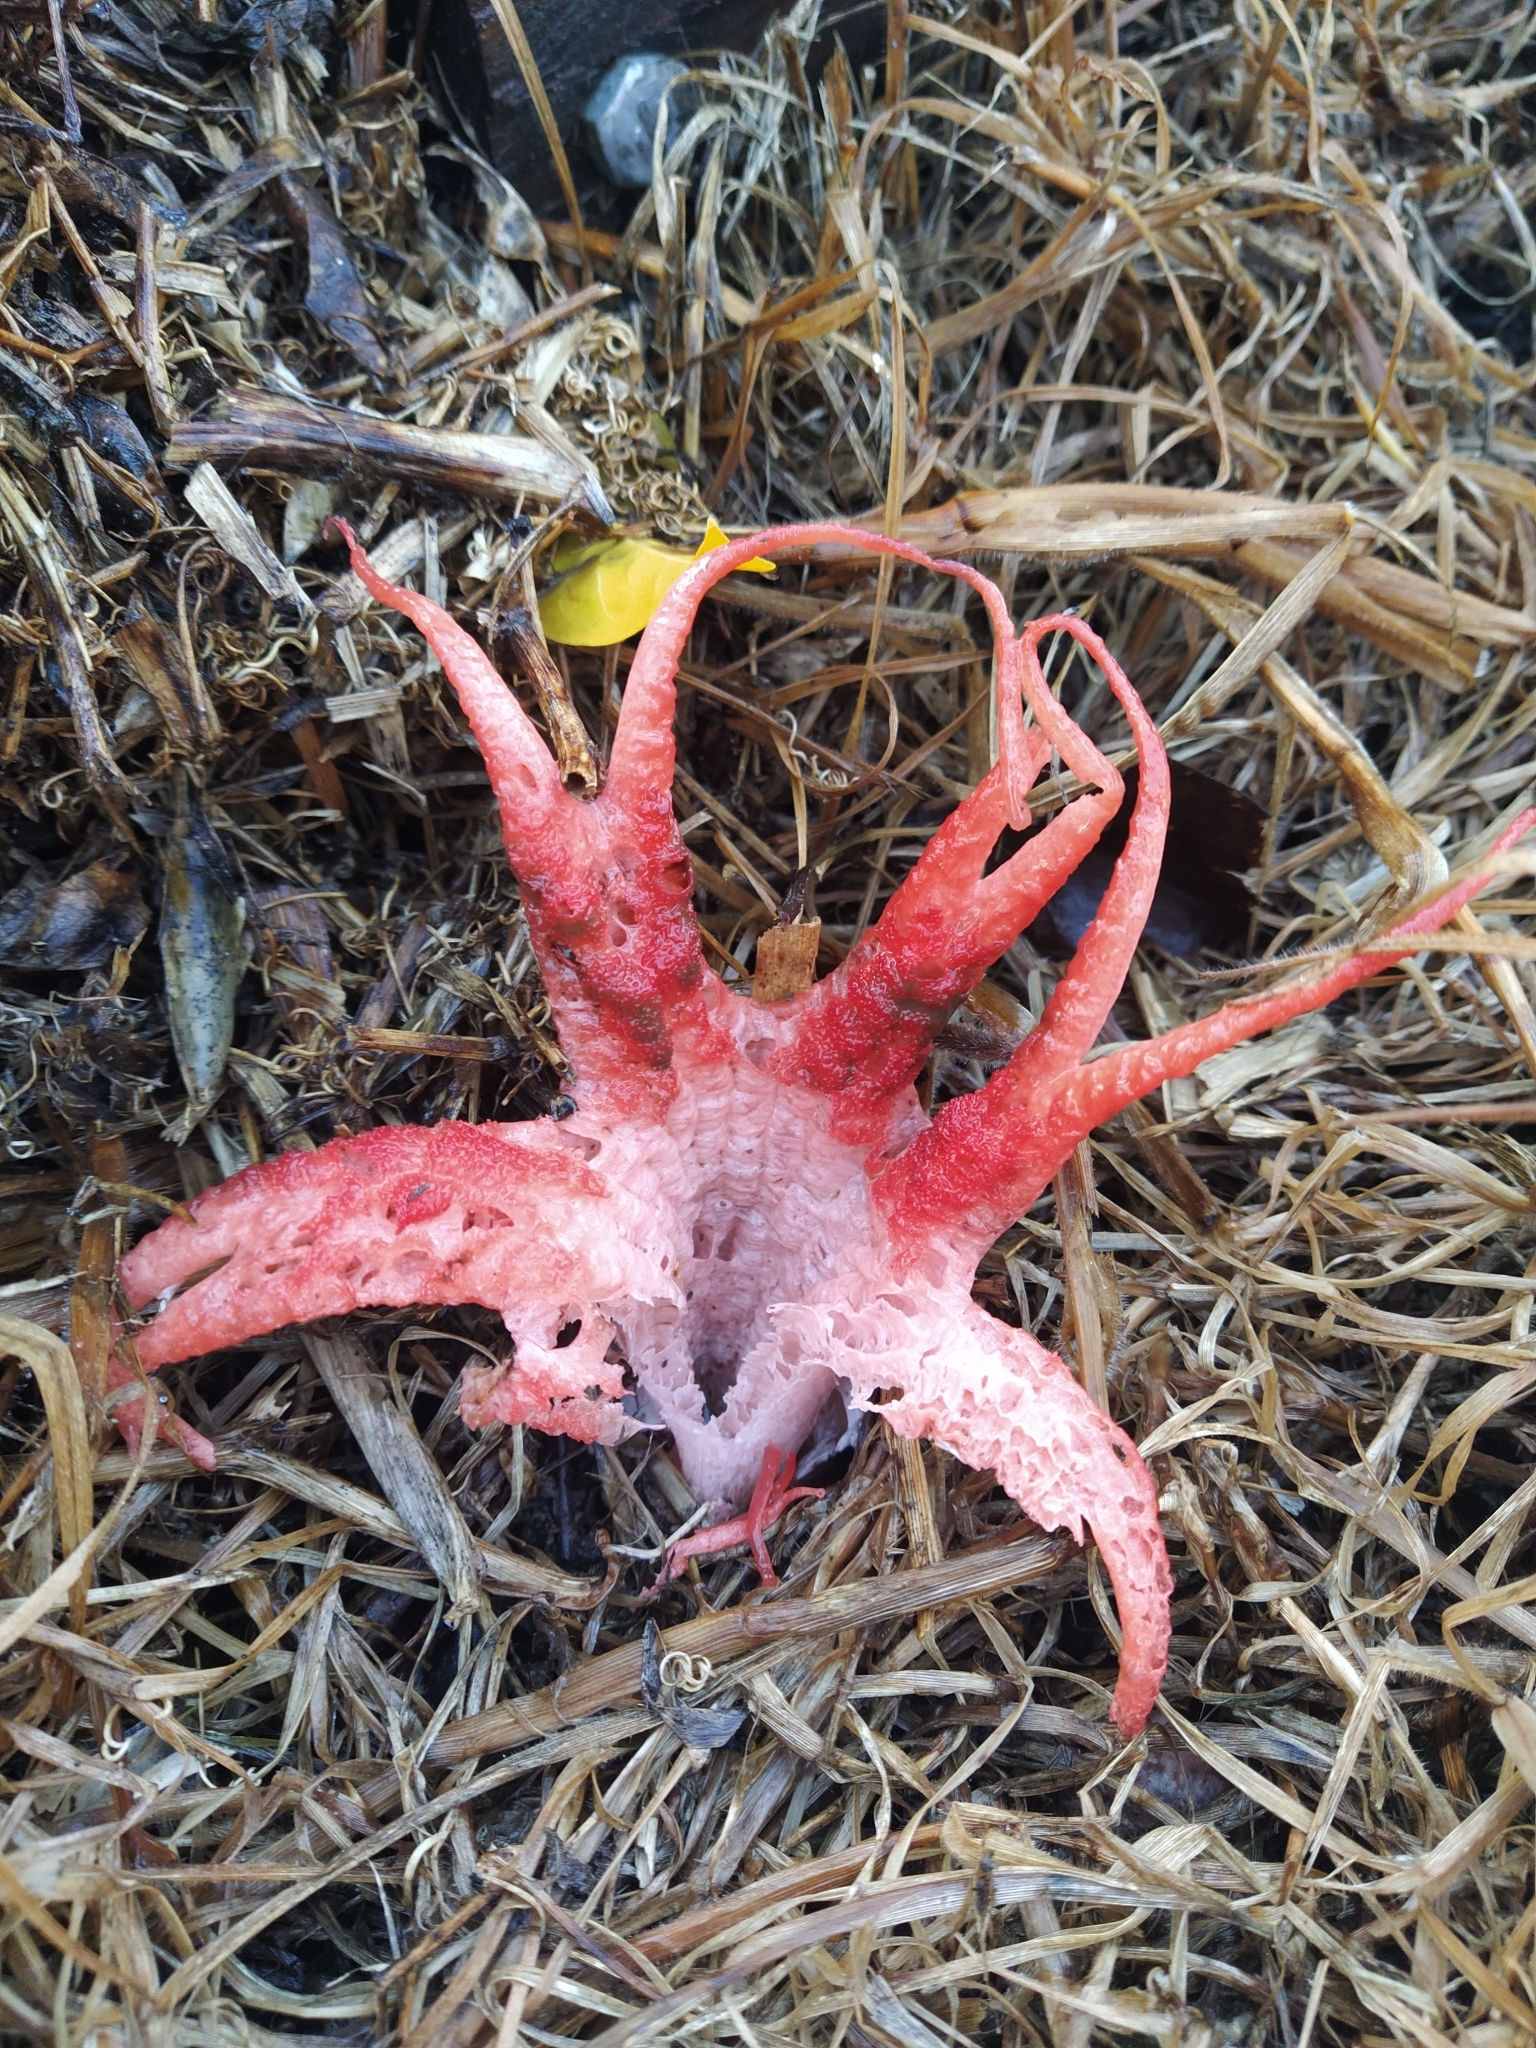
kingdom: Fungi
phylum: Basidiomycota
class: Agaricomycetes
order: Phallales
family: Phallaceae
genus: Clathrus
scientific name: Clathrus archeri
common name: Devil's fingers
